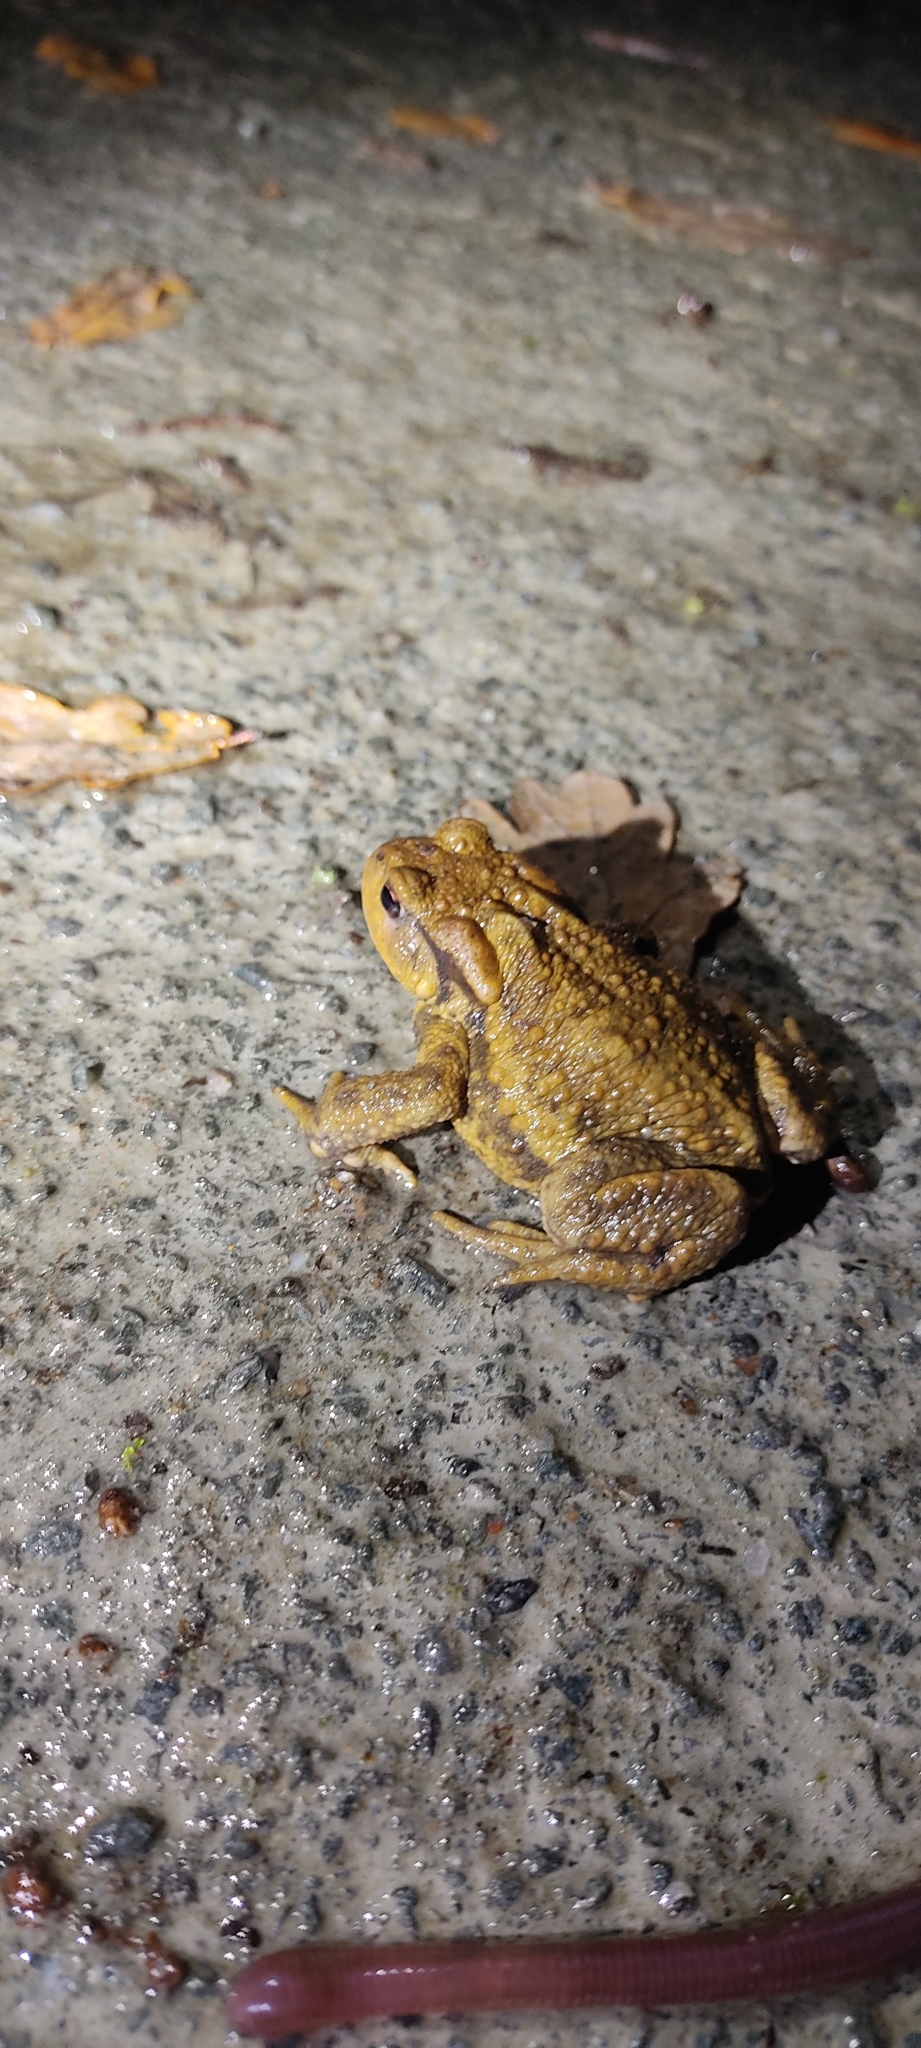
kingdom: Animalia
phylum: Chordata
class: Amphibia
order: Anura
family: Bufonidae
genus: Bufo
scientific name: Bufo spinosus
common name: Western common toad
